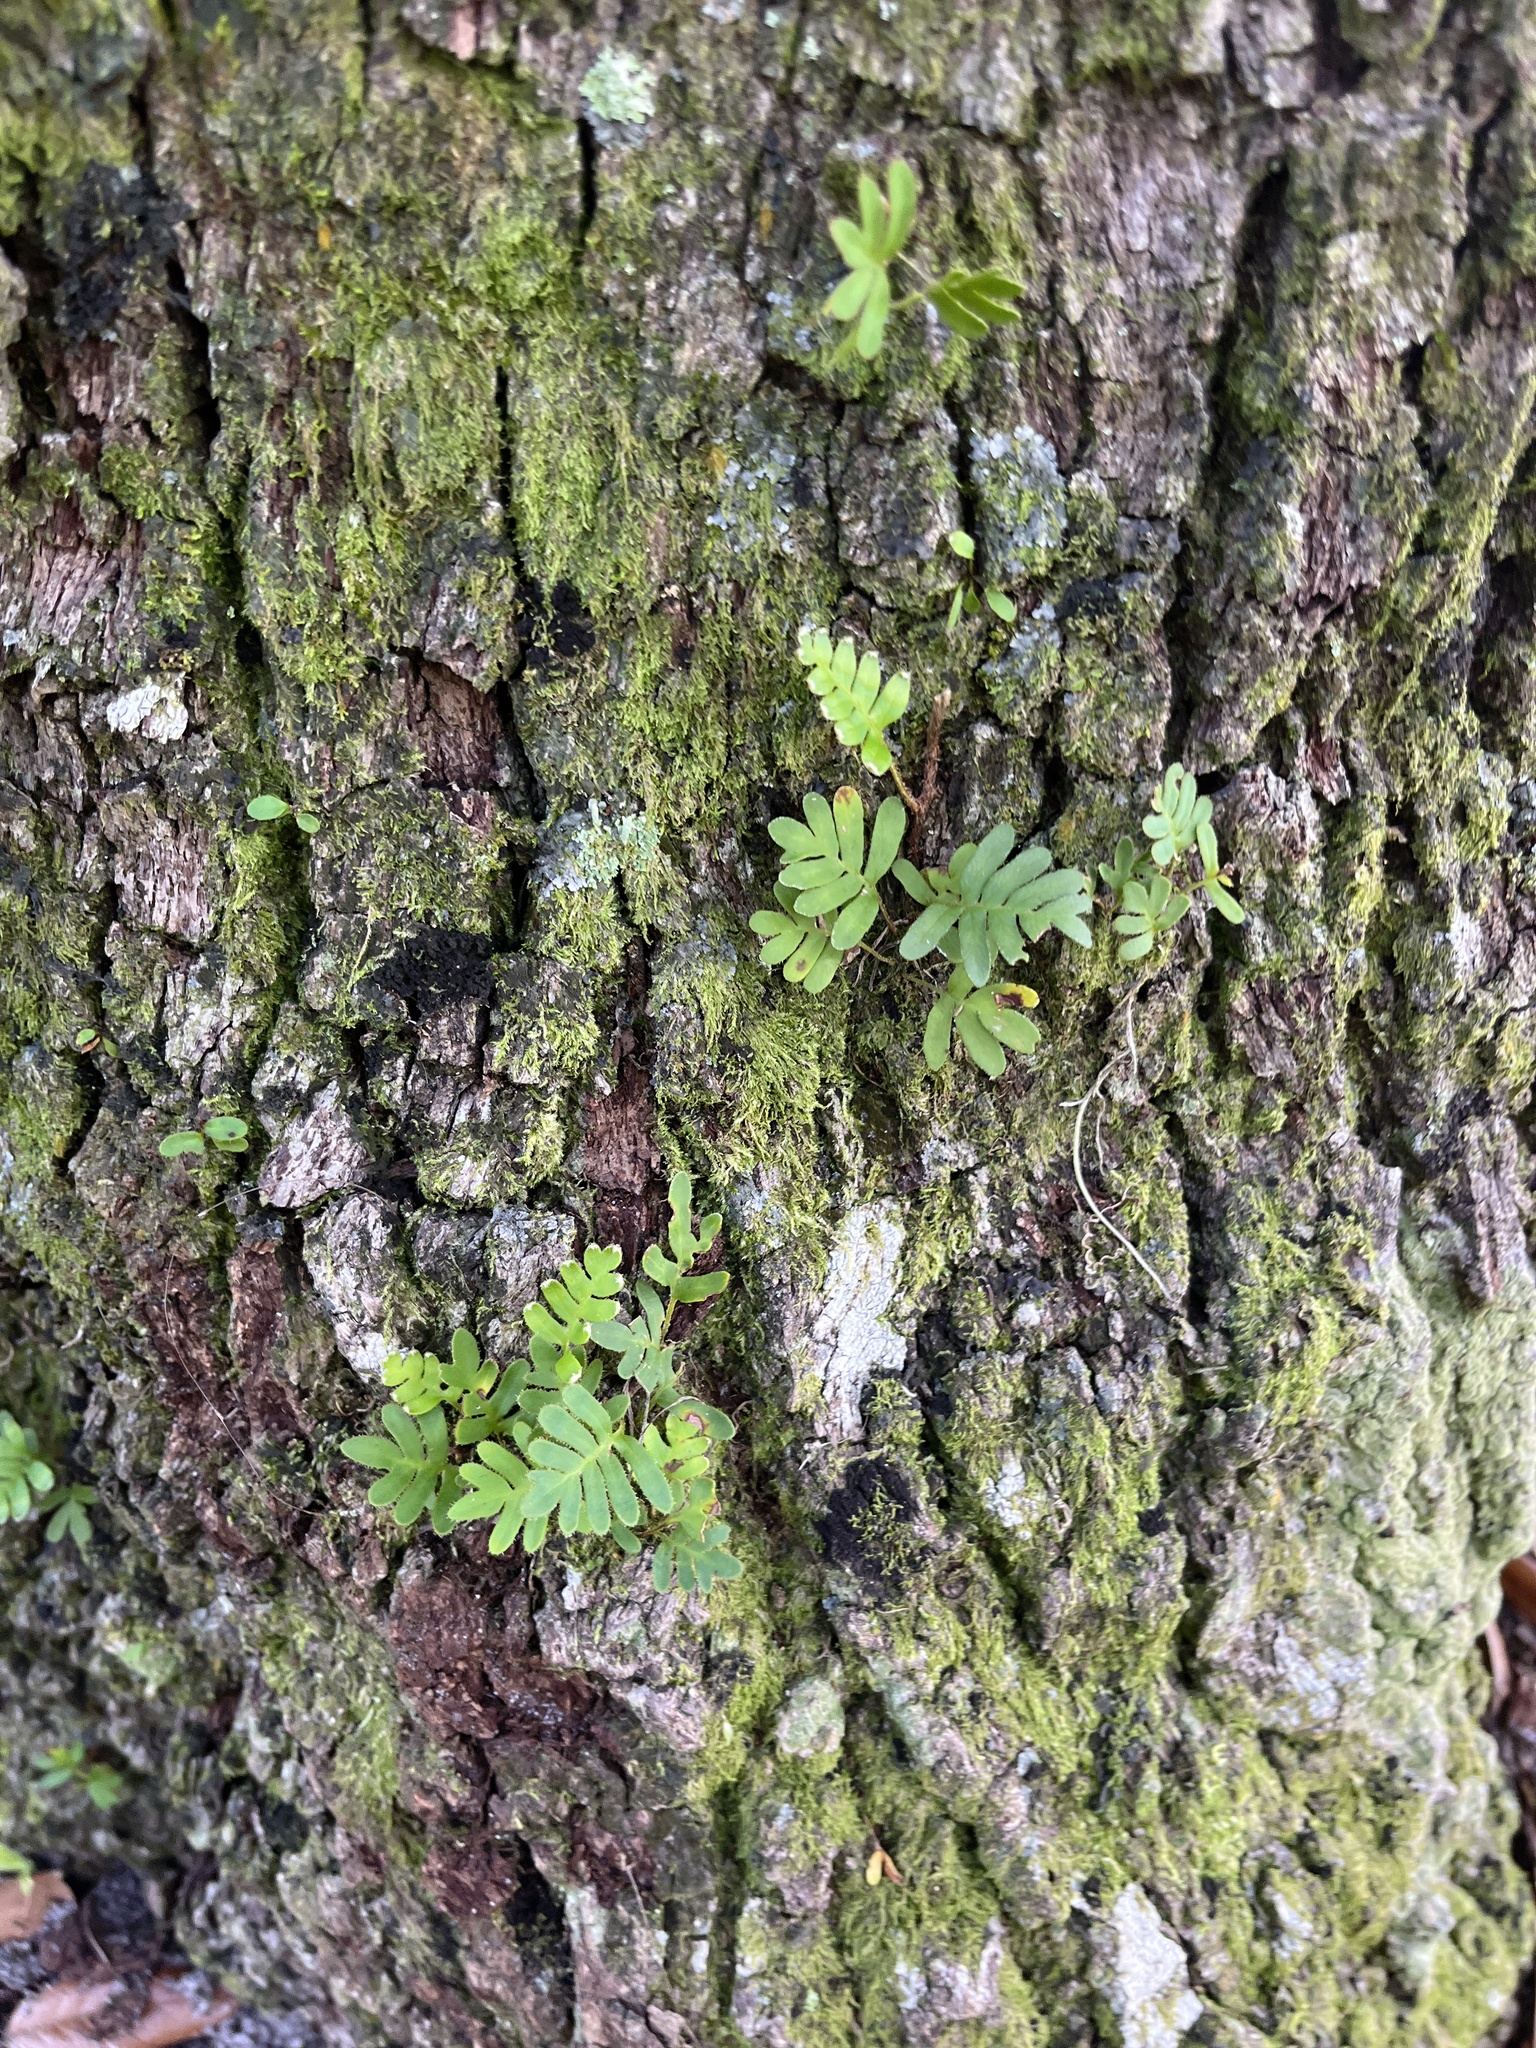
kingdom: Plantae
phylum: Tracheophyta
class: Polypodiopsida
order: Polypodiales
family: Polypodiaceae
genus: Pleopeltis
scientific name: Pleopeltis michauxiana
